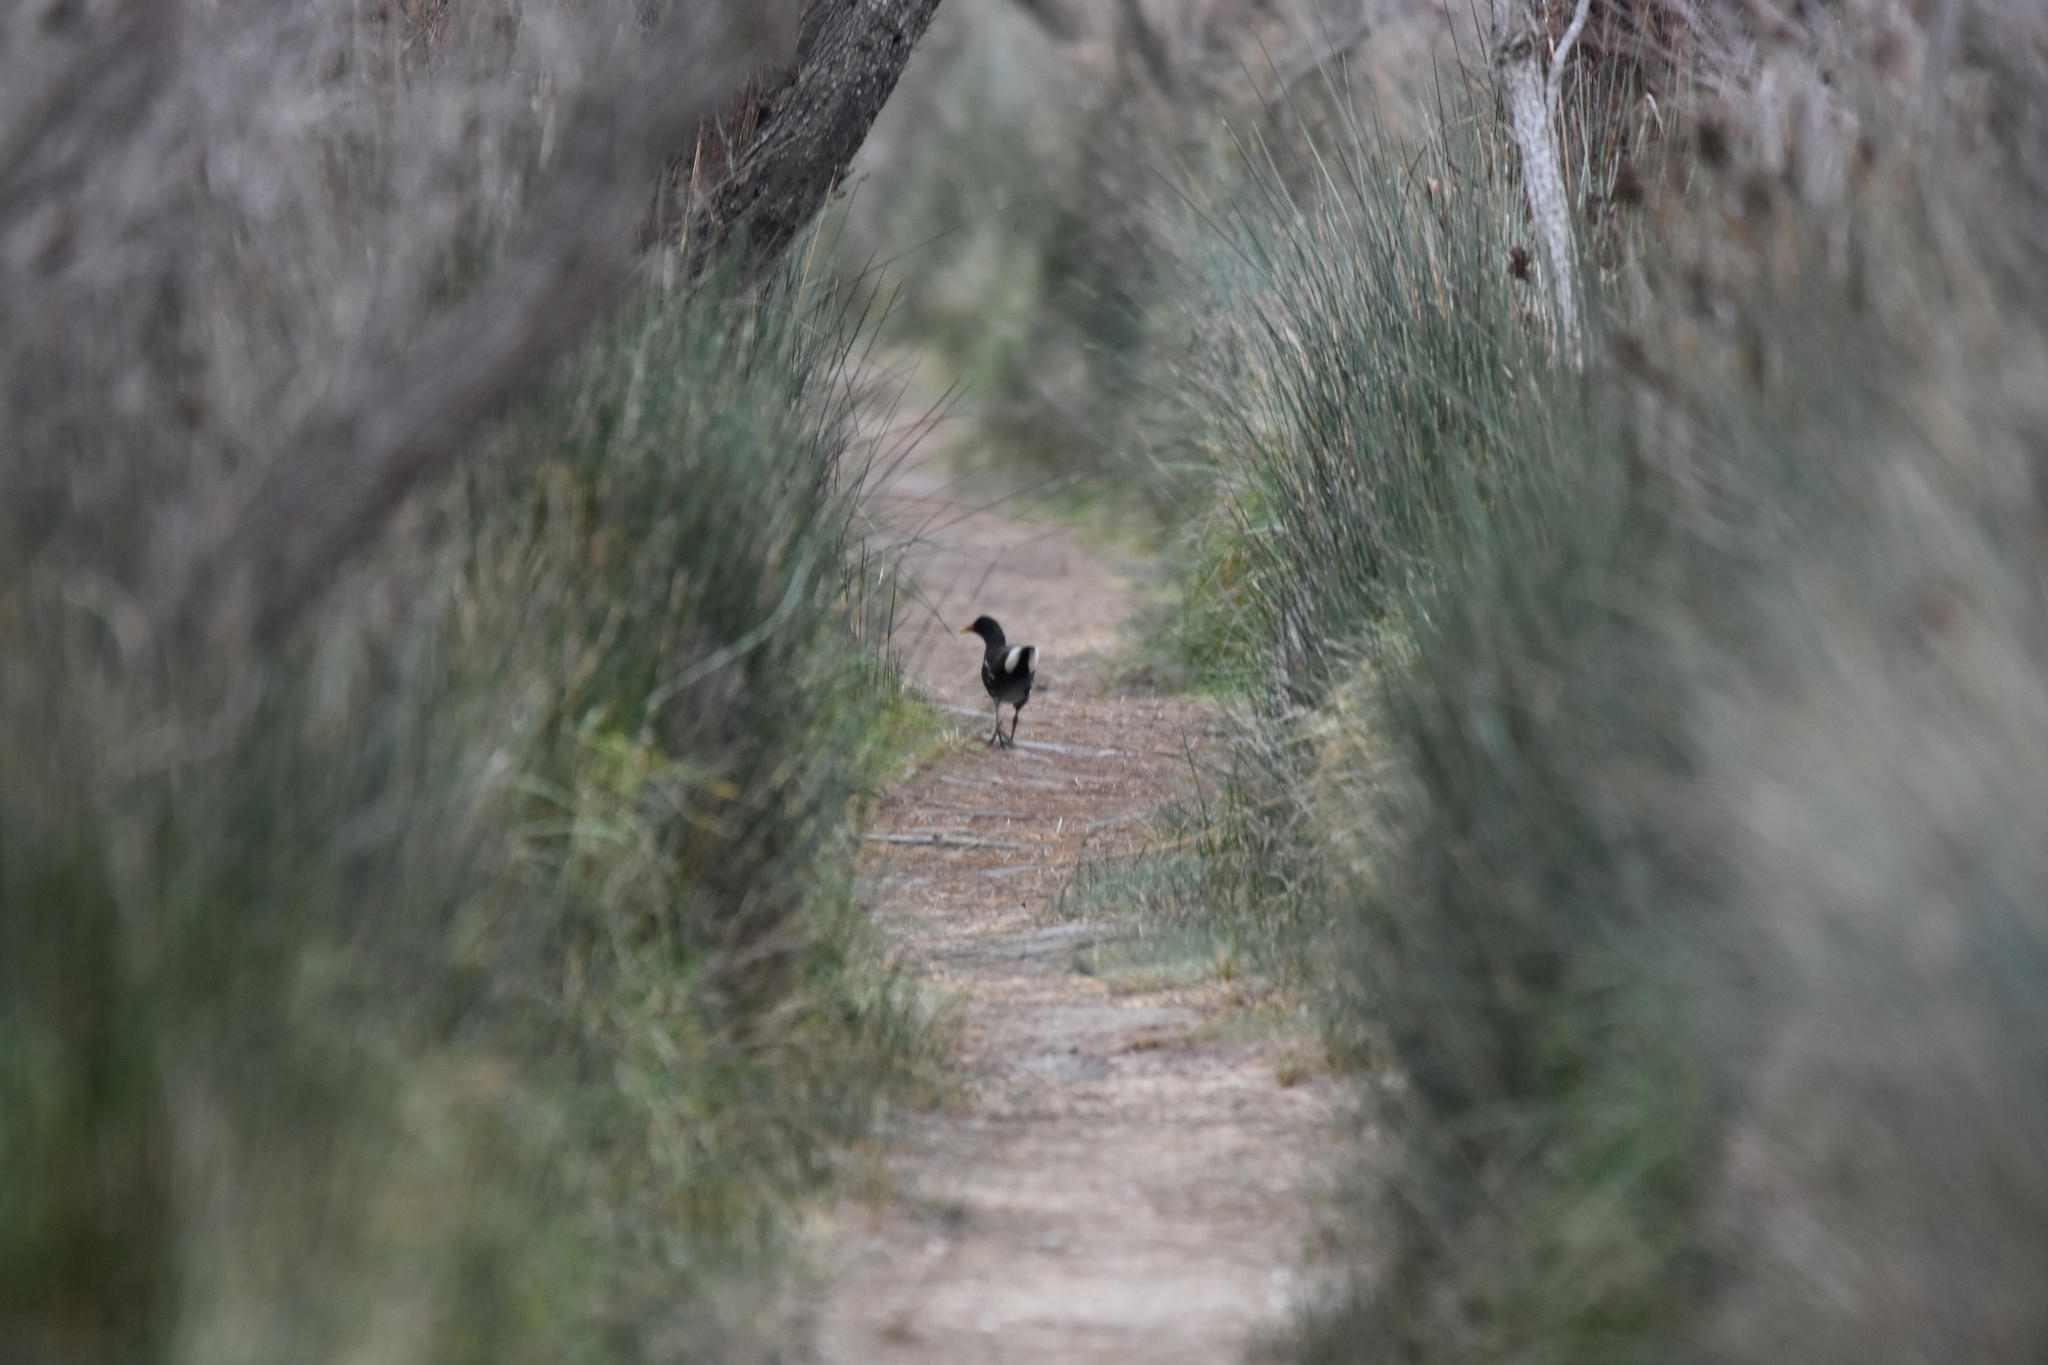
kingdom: Animalia
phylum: Chordata
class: Aves
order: Gruiformes
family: Rallidae
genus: Gallinula
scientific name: Gallinula chloropus
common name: Common moorhen
